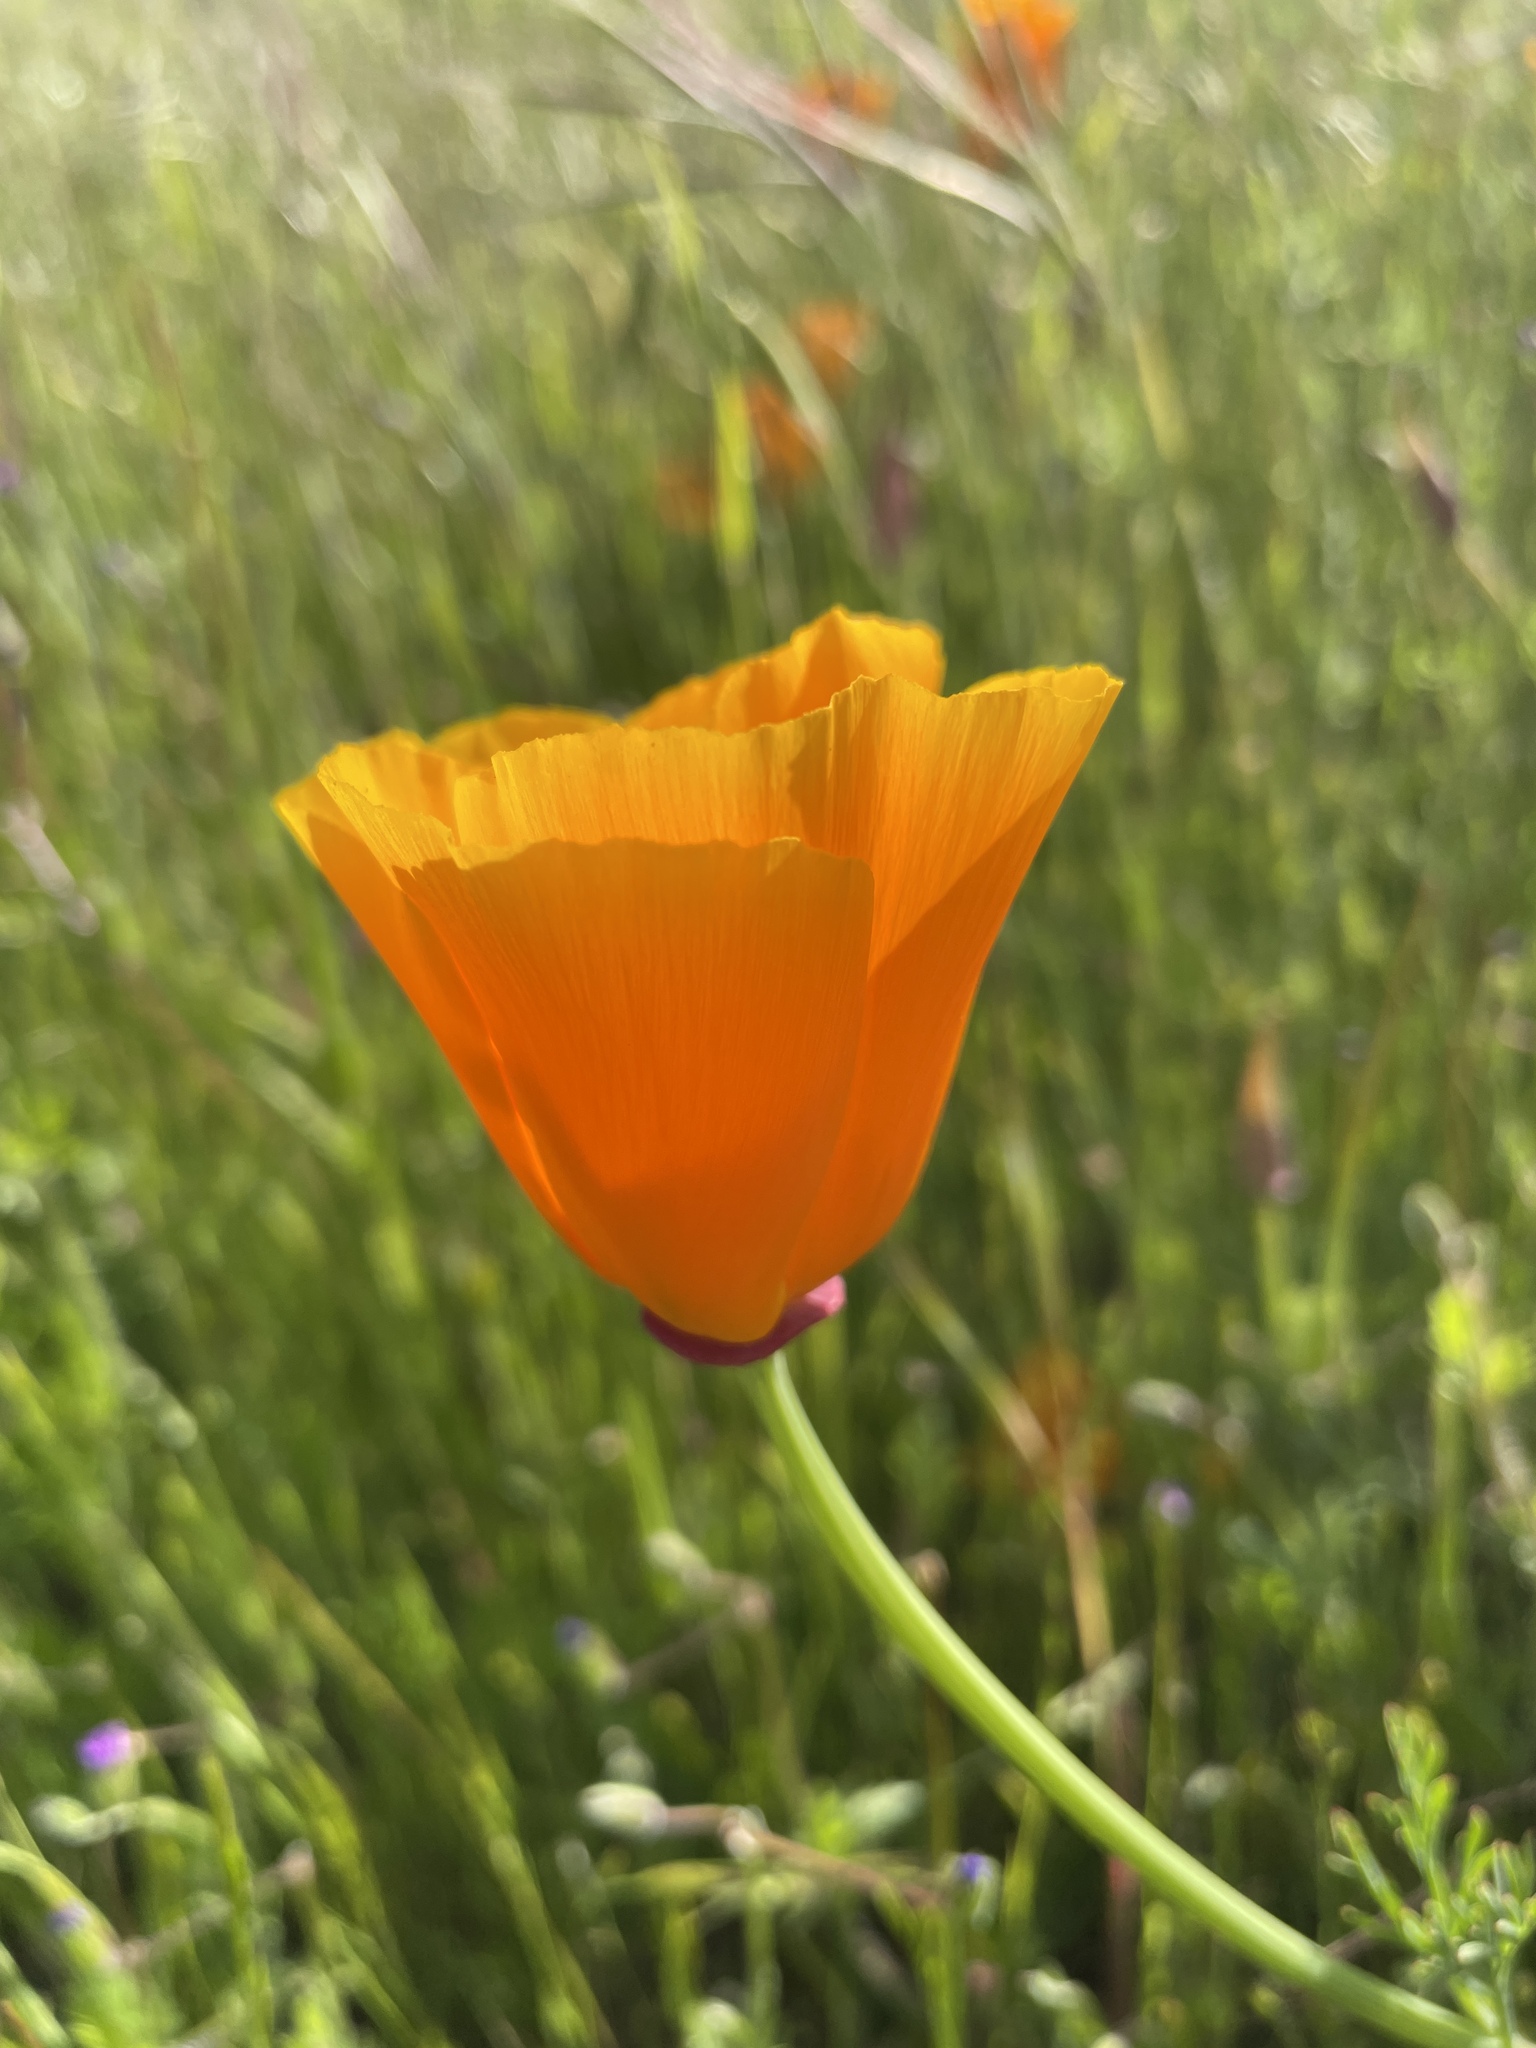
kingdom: Plantae
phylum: Tracheophyta
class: Magnoliopsida
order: Ranunculales
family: Papaveraceae
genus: Eschscholzia
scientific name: Eschscholzia californica
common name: California poppy
